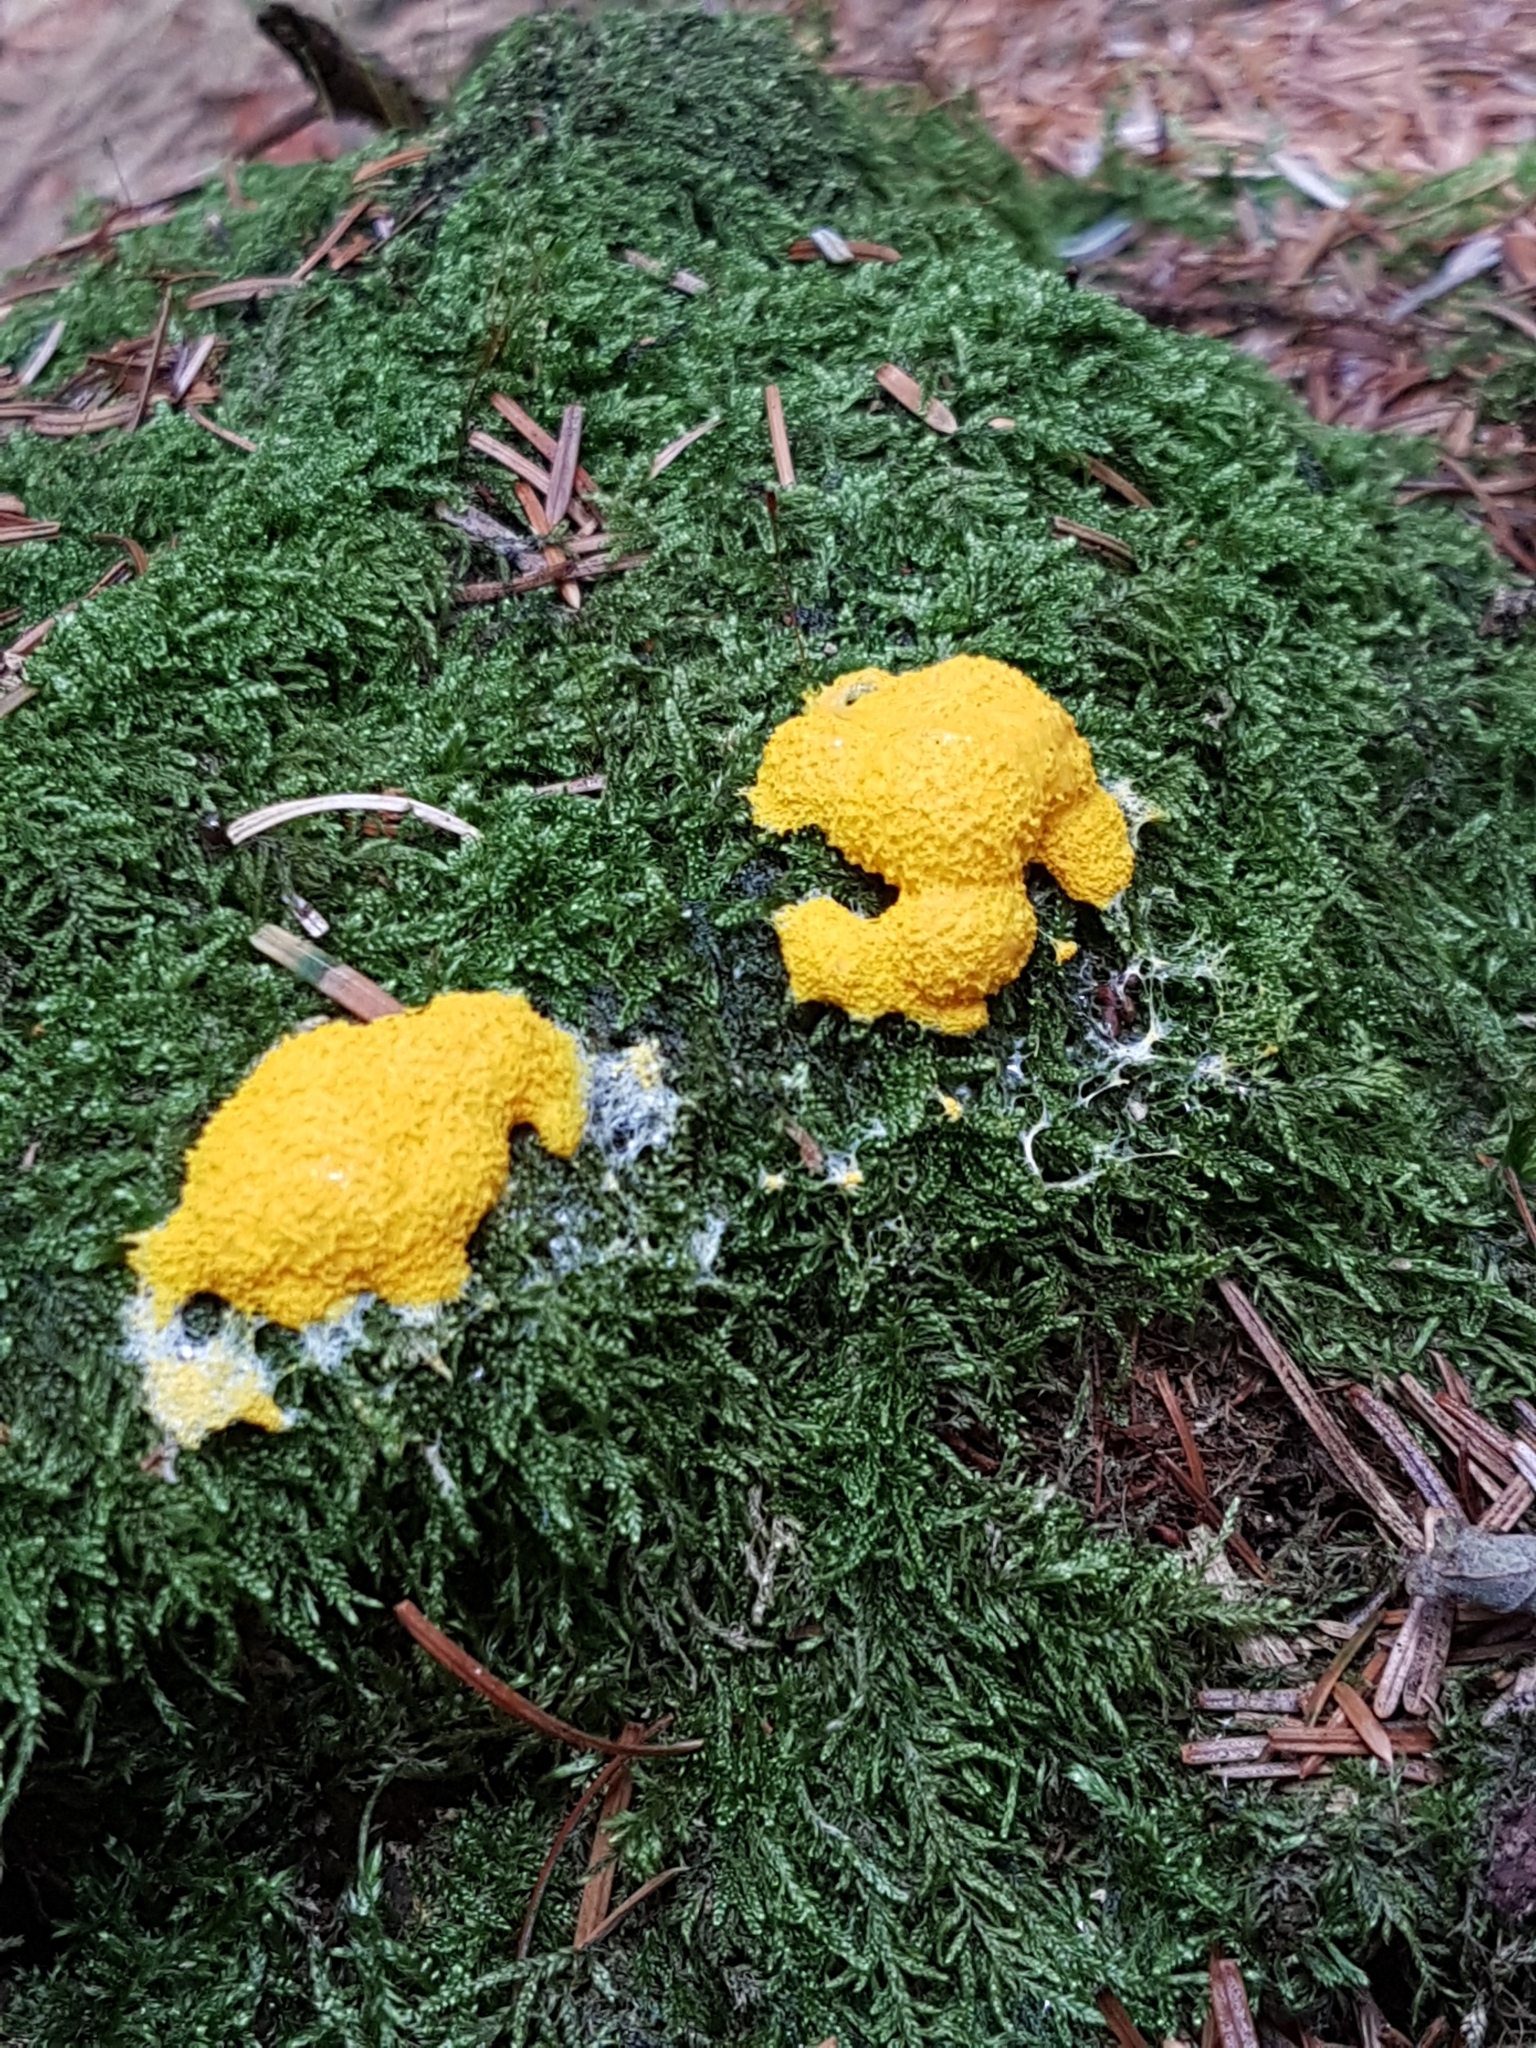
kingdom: Protozoa
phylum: Mycetozoa
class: Myxomycetes
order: Physarales
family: Physaraceae
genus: Fuligo
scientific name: Fuligo septica
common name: Dog vomit slime mold
